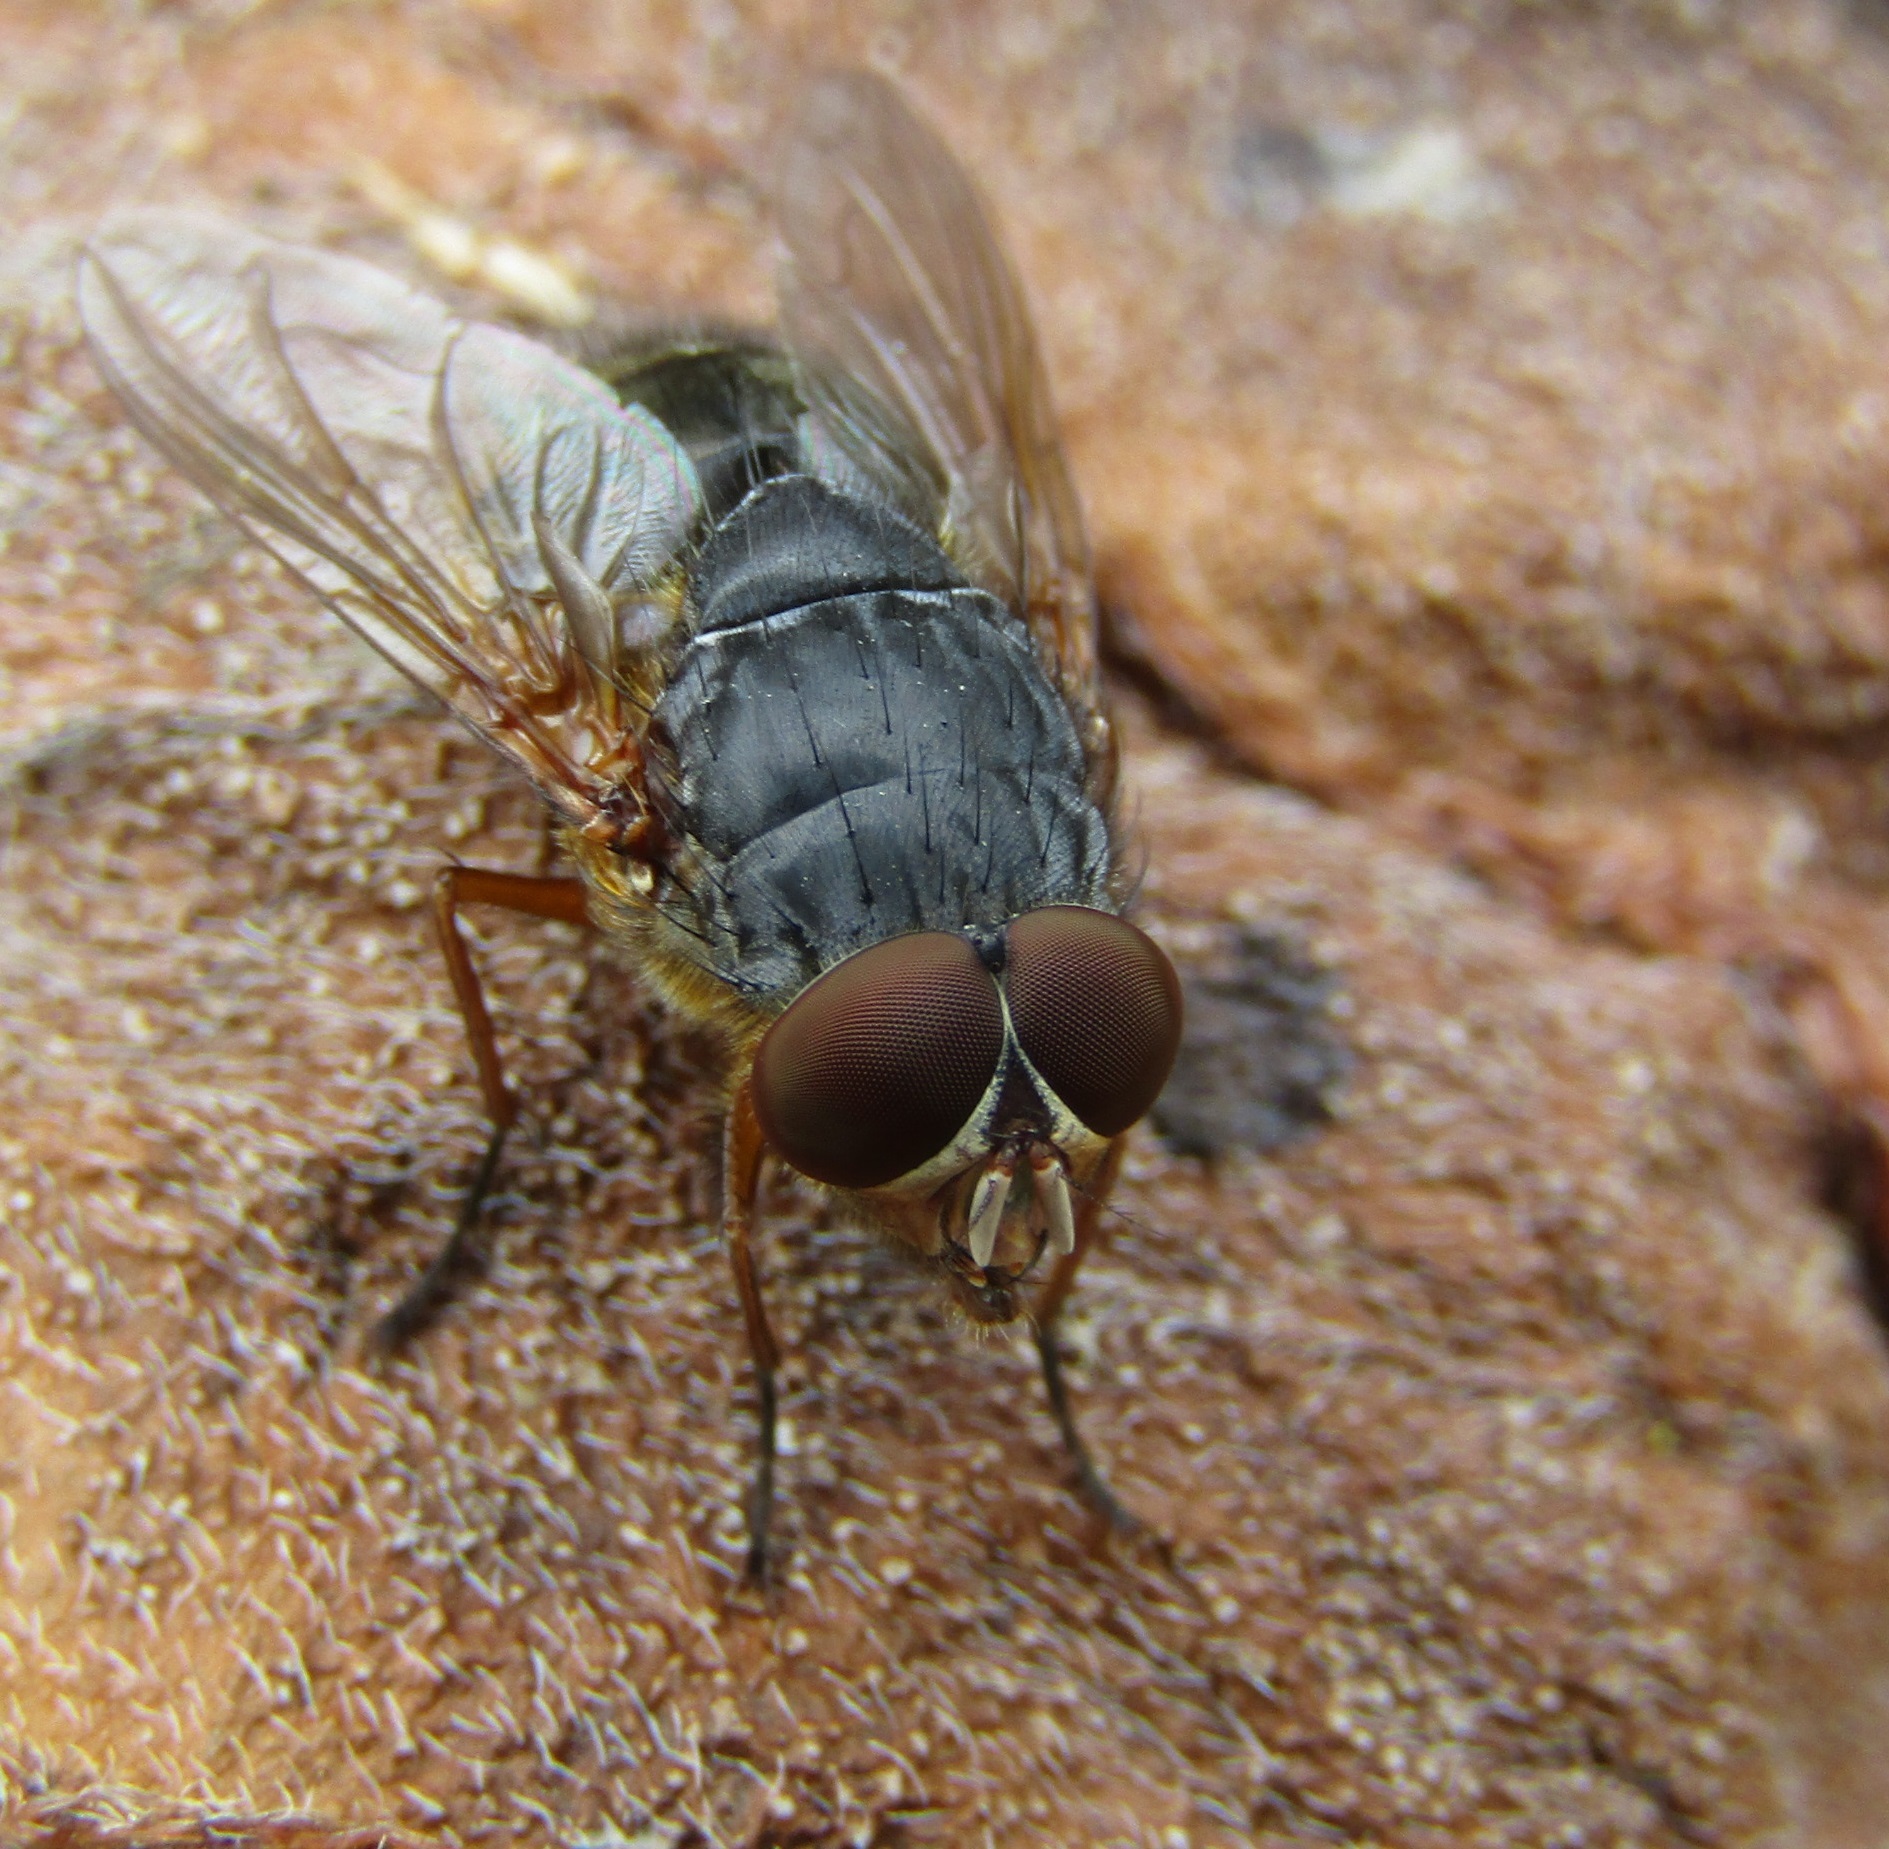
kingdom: Animalia
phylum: Arthropoda
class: Insecta
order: Diptera
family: Calliphoridae
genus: Calliphora
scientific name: Calliphora stygia
